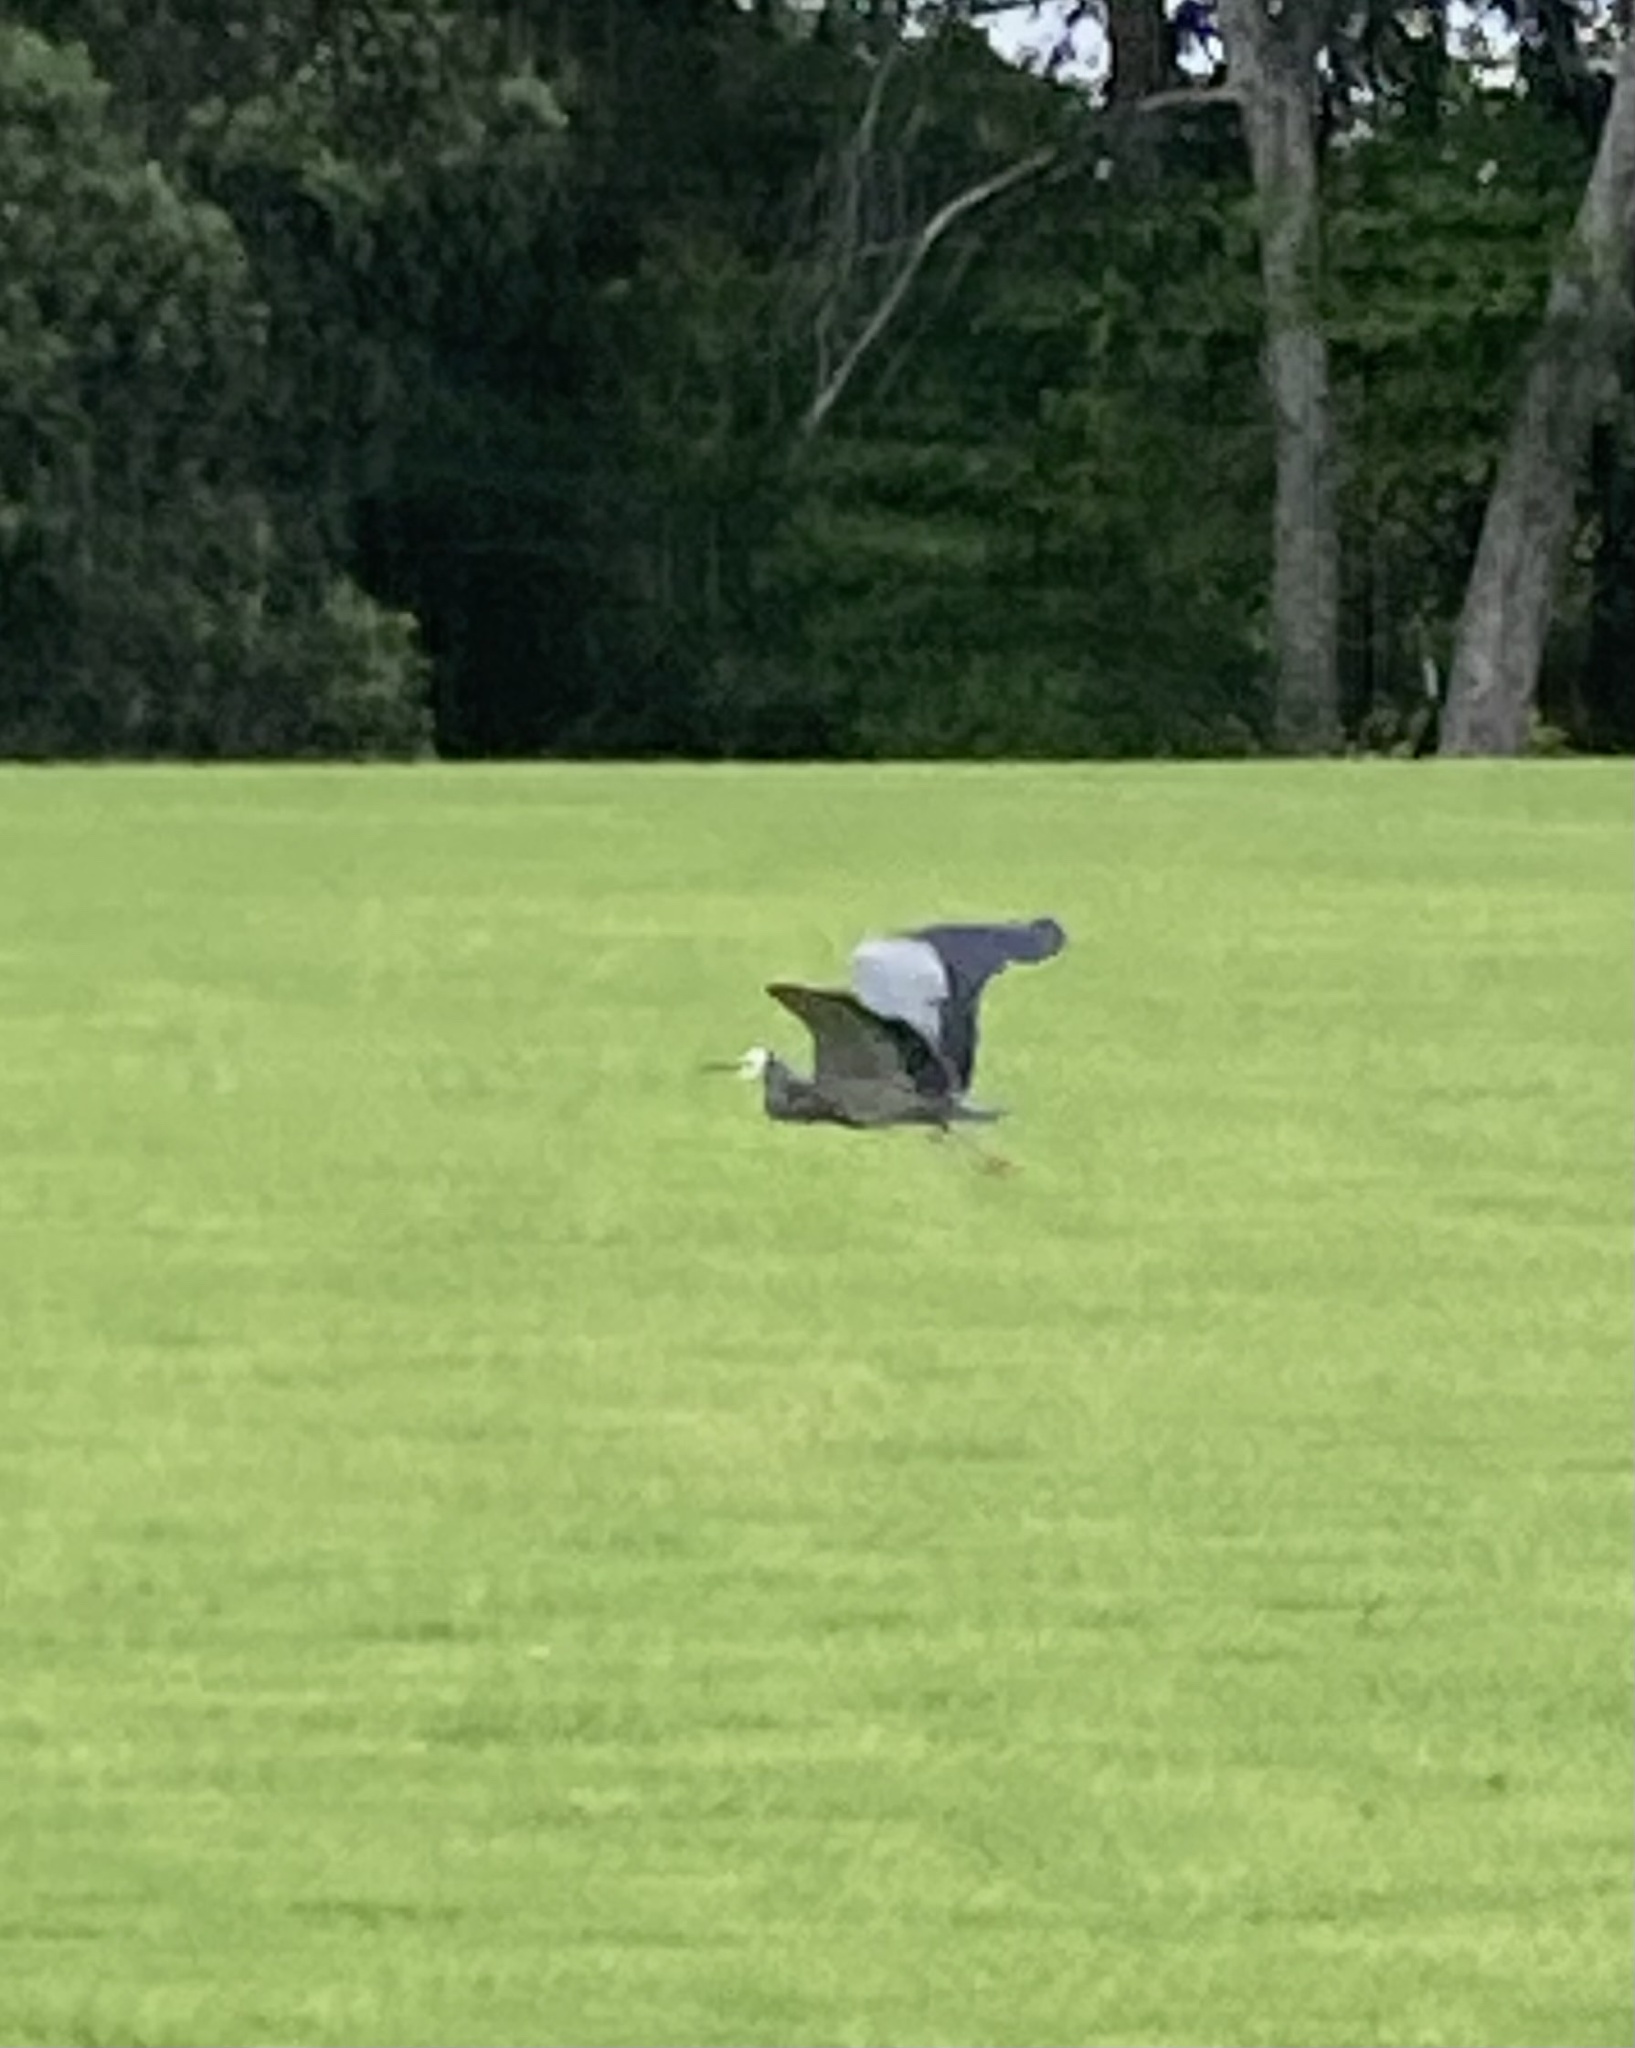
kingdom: Animalia
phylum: Chordata
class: Aves
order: Pelecaniformes
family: Ardeidae
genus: Egretta
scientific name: Egretta novaehollandiae
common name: White-faced heron
